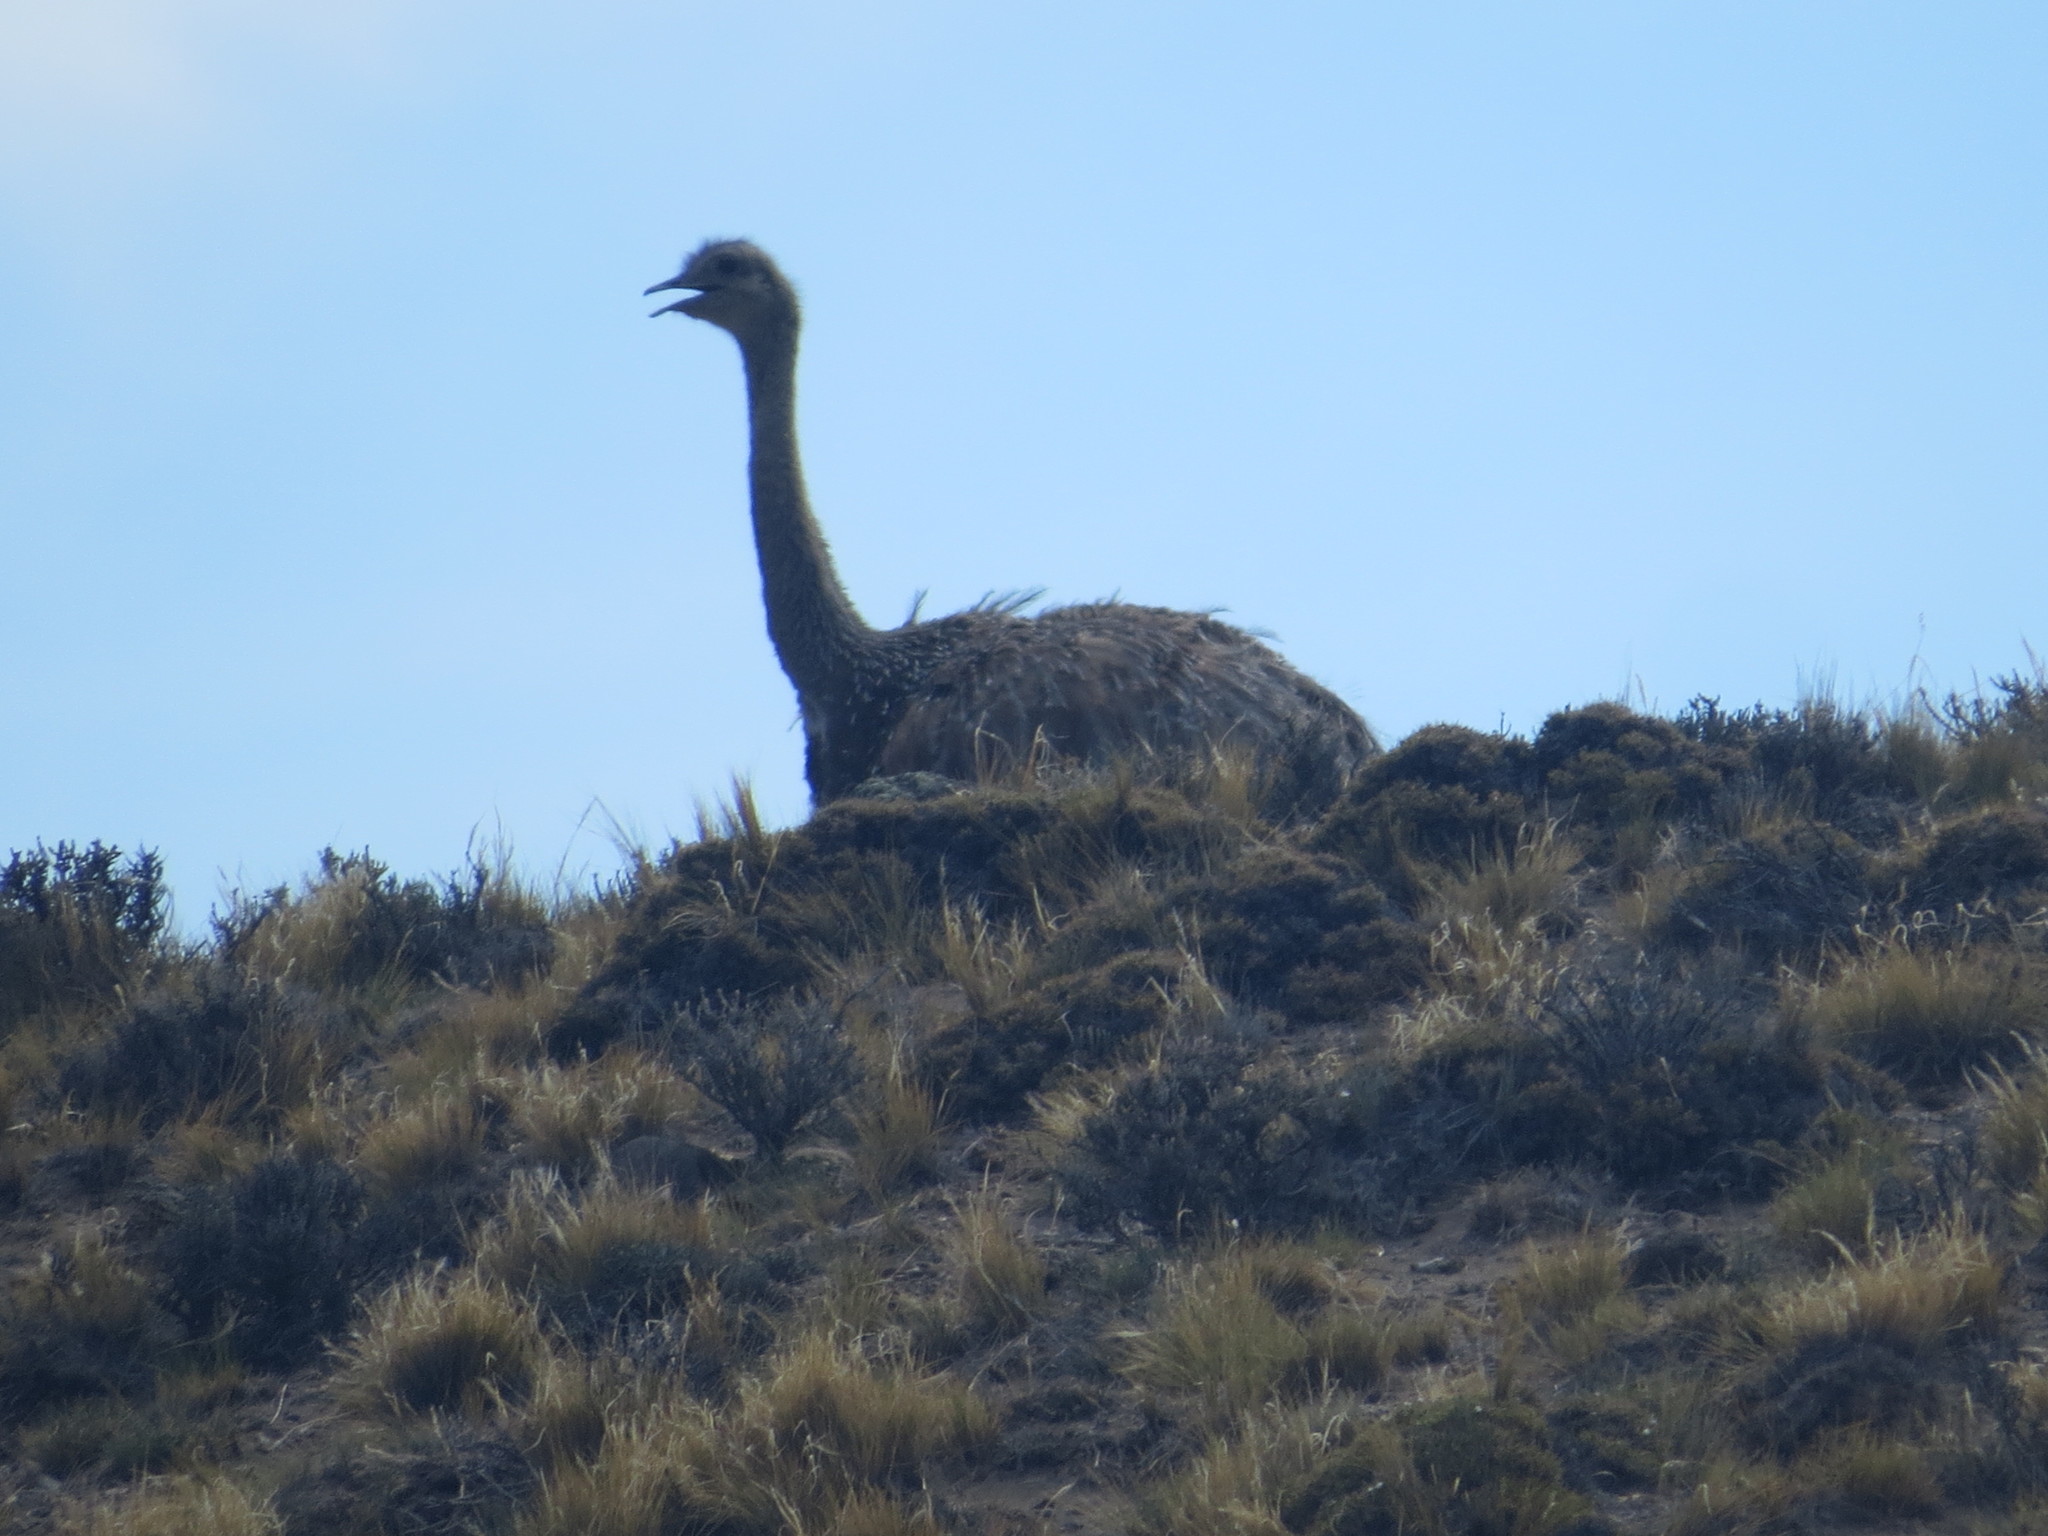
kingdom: Animalia
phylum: Chordata
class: Aves
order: Rheiformes
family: Rheidae
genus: Rhea
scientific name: Rhea pennata
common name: Lesser rhea
